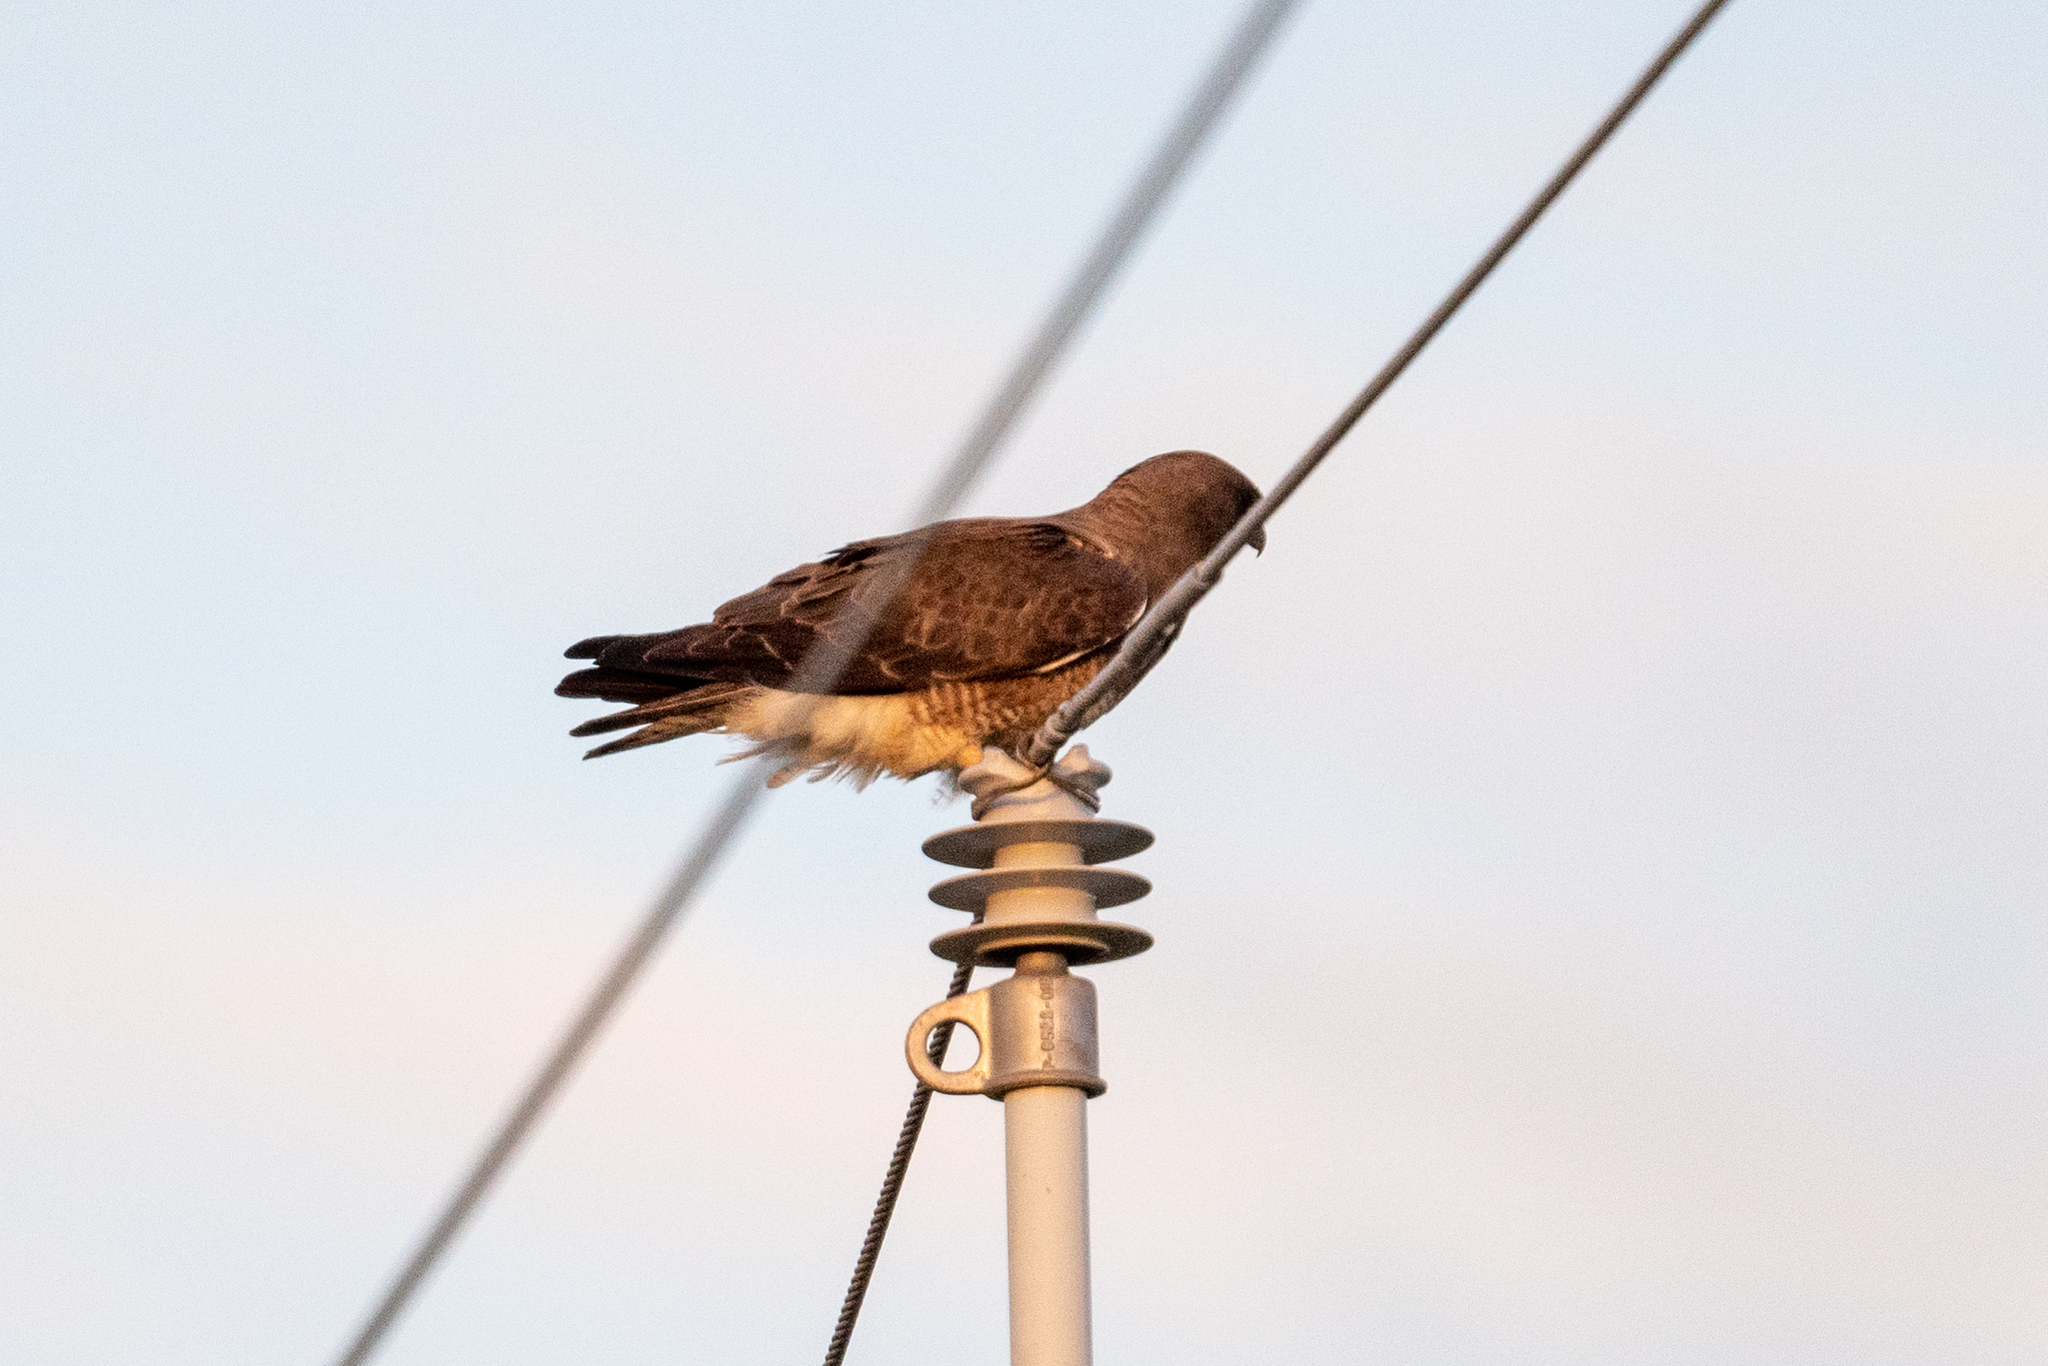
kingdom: Animalia
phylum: Chordata
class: Aves
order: Accipitriformes
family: Accipitridae
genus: Buteo
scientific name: Buteo swainsoni
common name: Swainson's hawk
